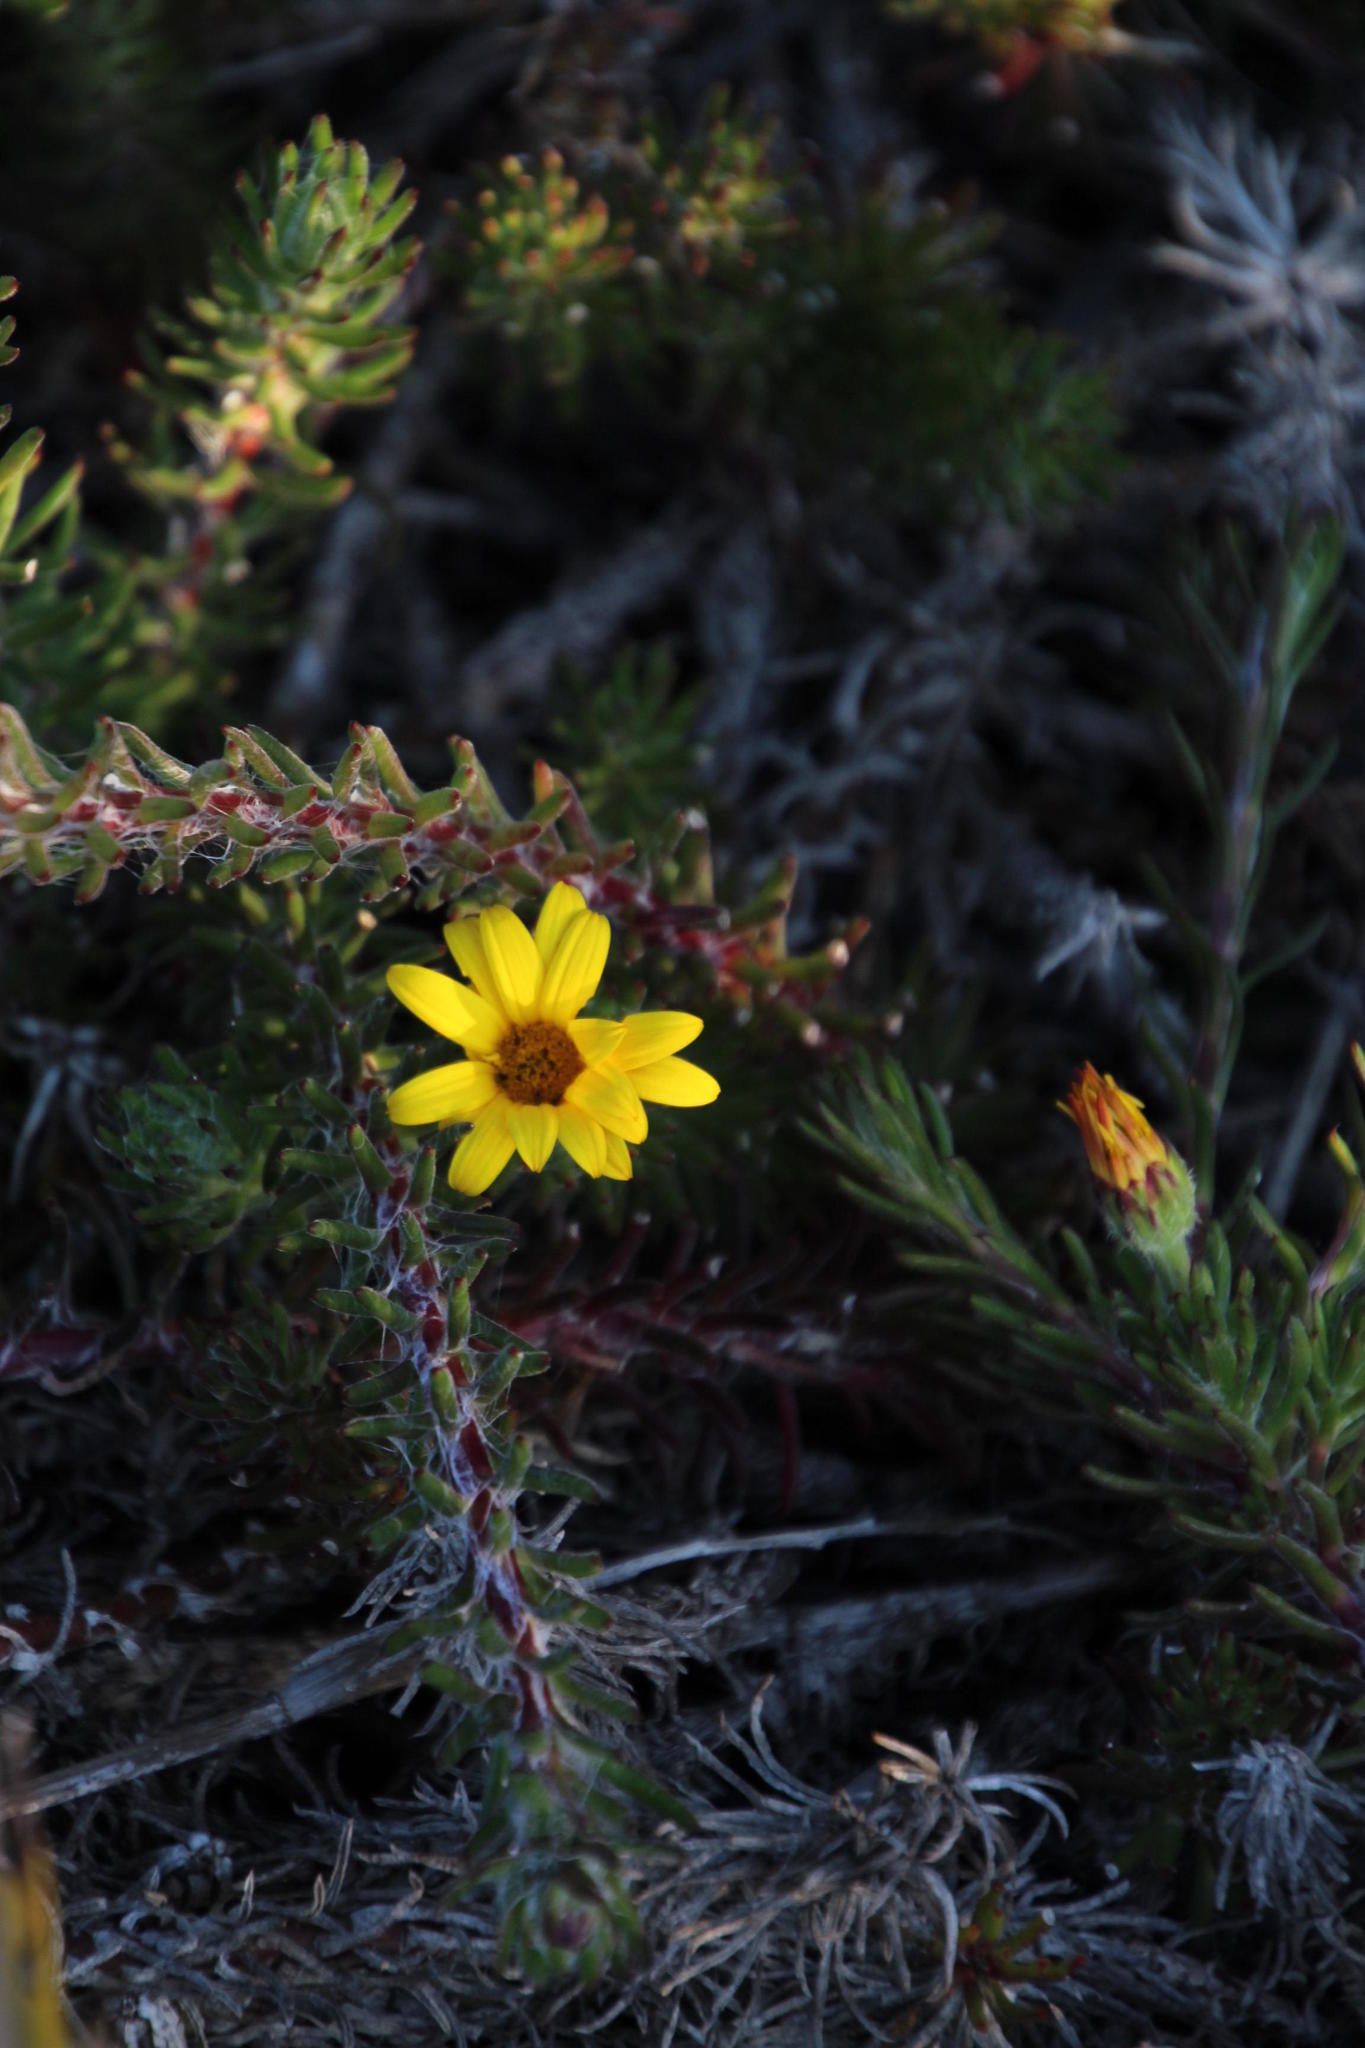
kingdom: Plantae
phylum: Tracheophyta
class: Magnoliopsida
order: Asterales
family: Asteraceae
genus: Osteospermum
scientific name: Osteospermum subulatum
